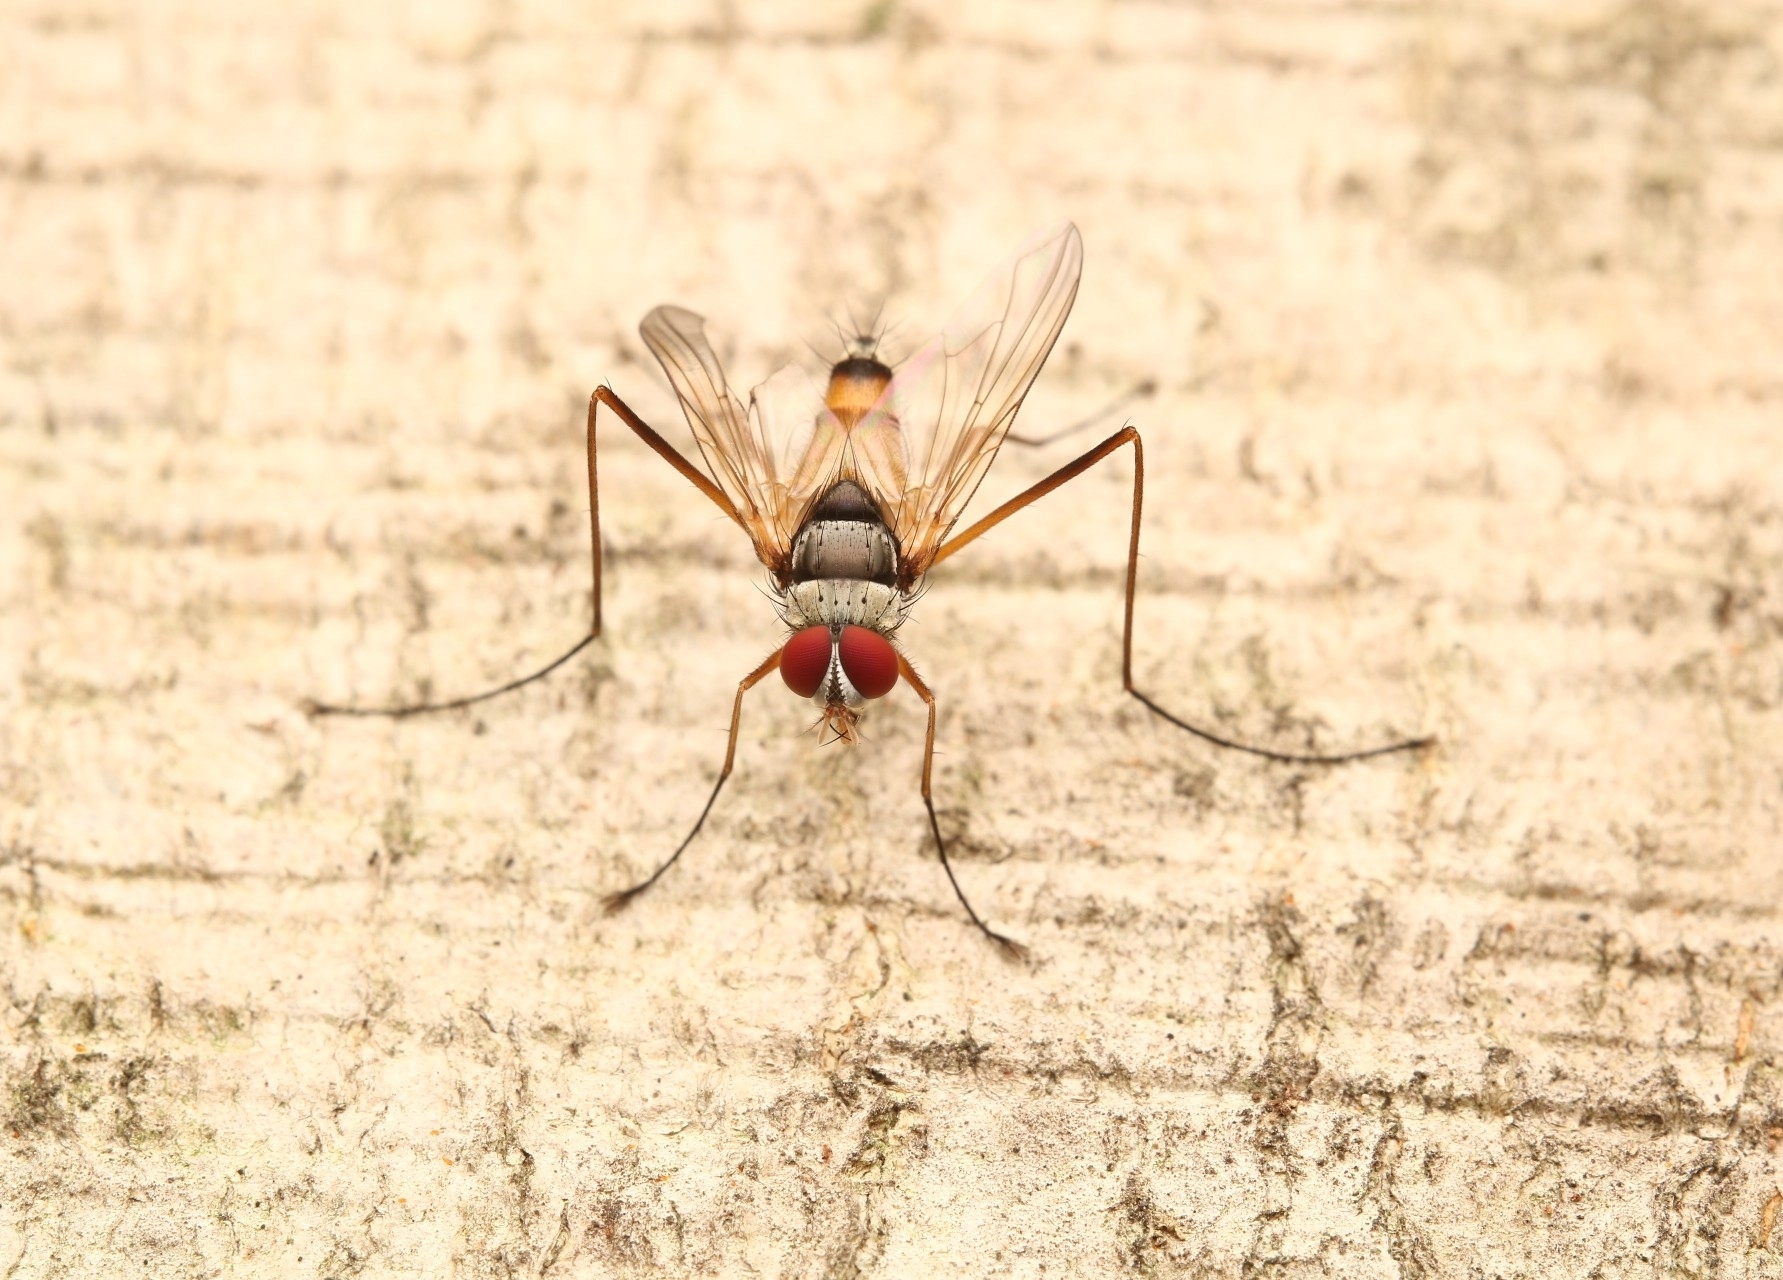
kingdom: Animalia
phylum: Arthropoda
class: Insecta
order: Diptera
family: Tachinidae
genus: Cholomyia
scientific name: Cholomyia inaequipes
